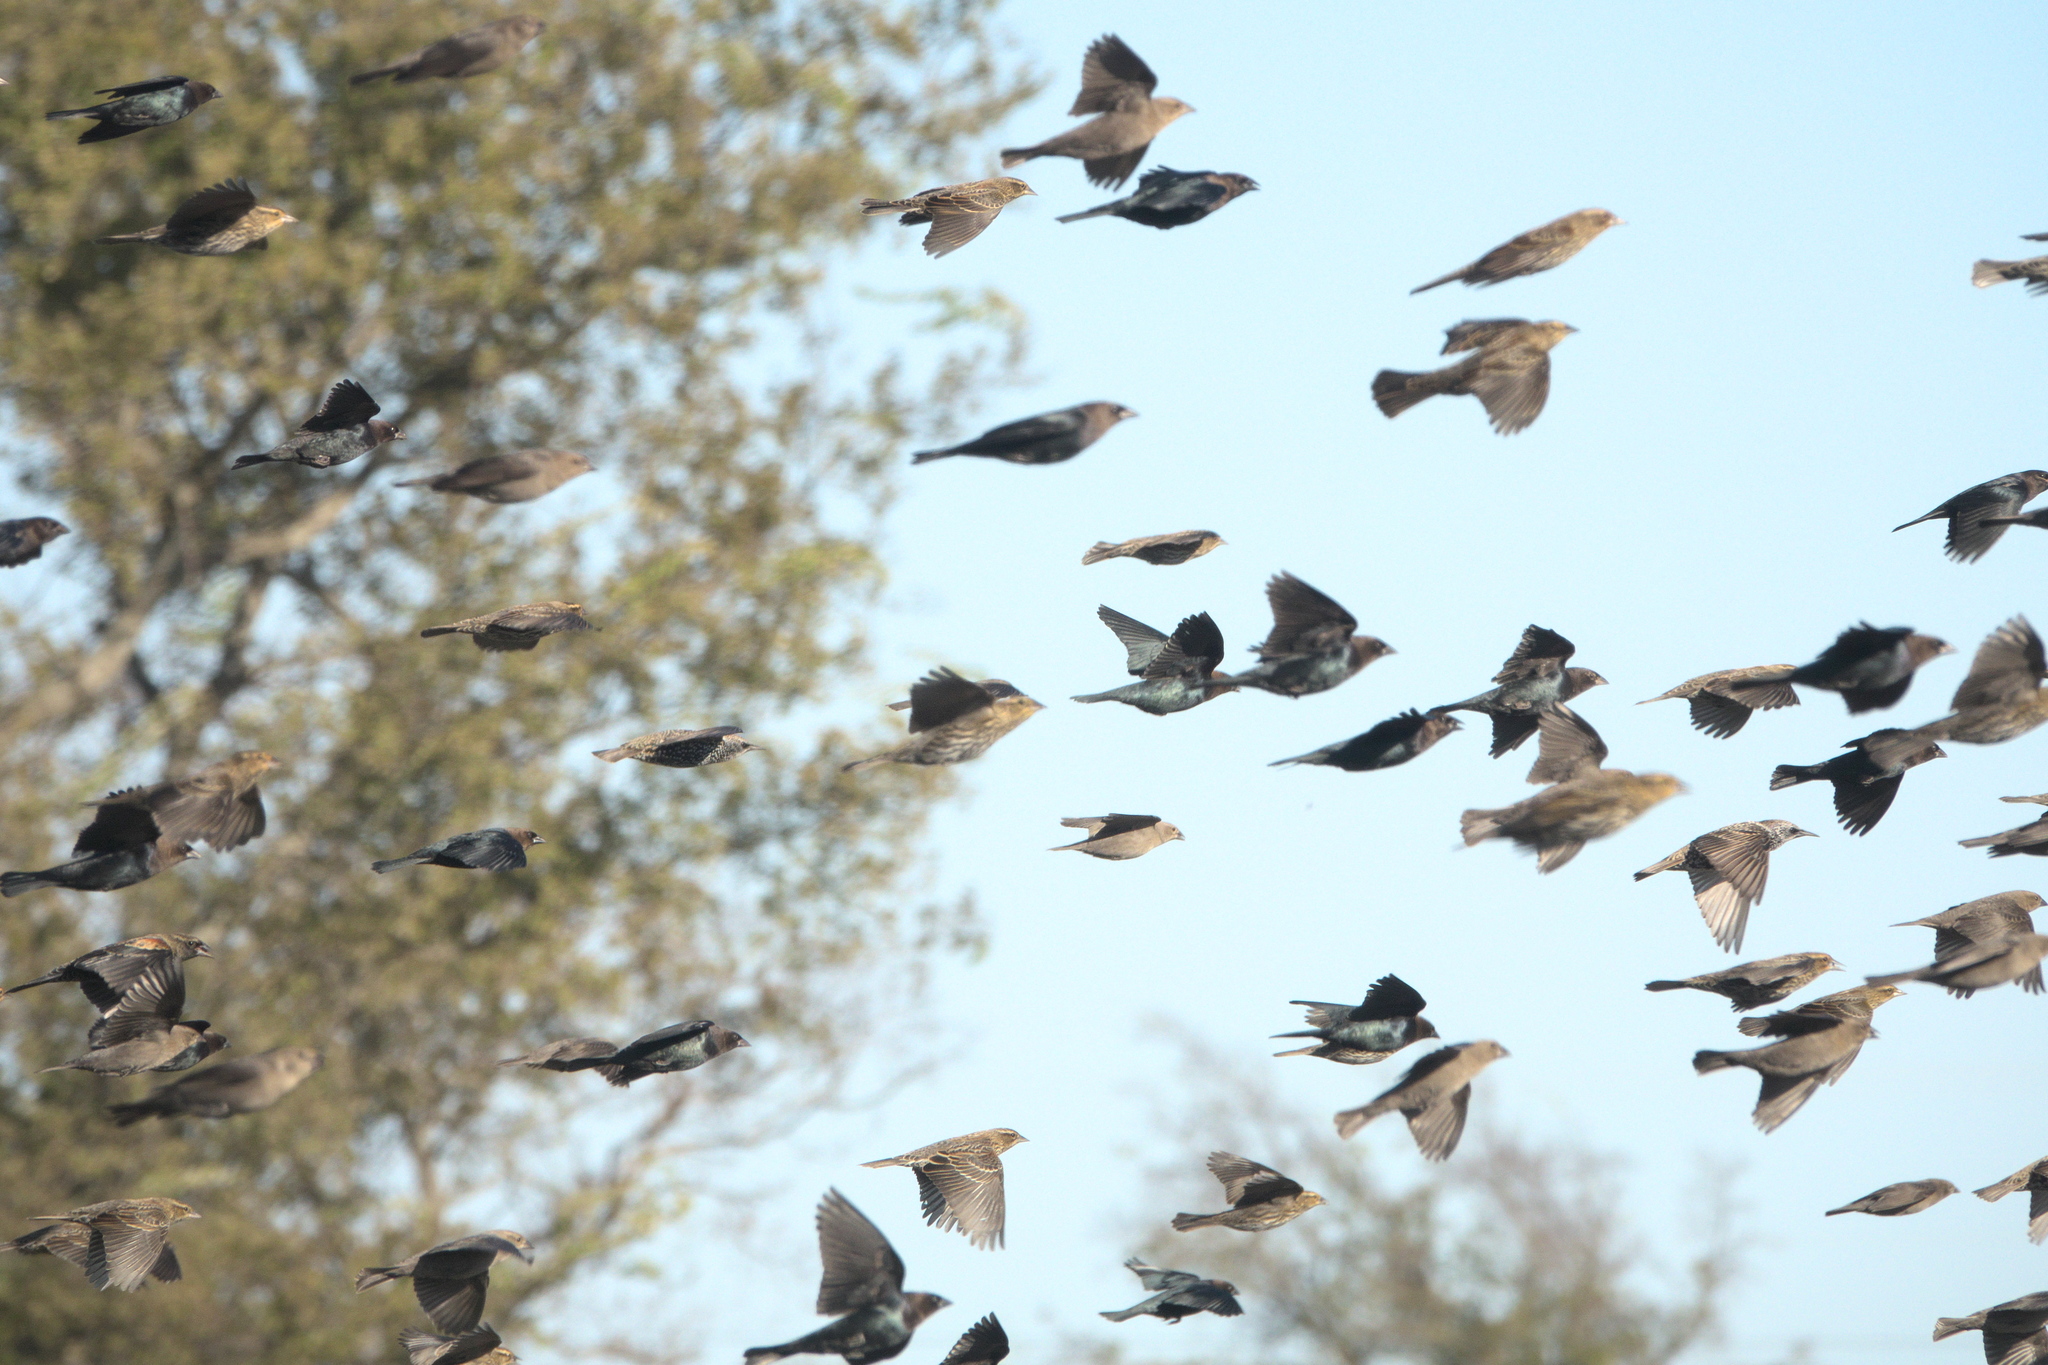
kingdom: Animalia
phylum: Chordata
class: Aves
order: Passeriformes
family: Icteridae
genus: Molothrus
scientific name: Molothrus ater
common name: Brown-headed cowbird
